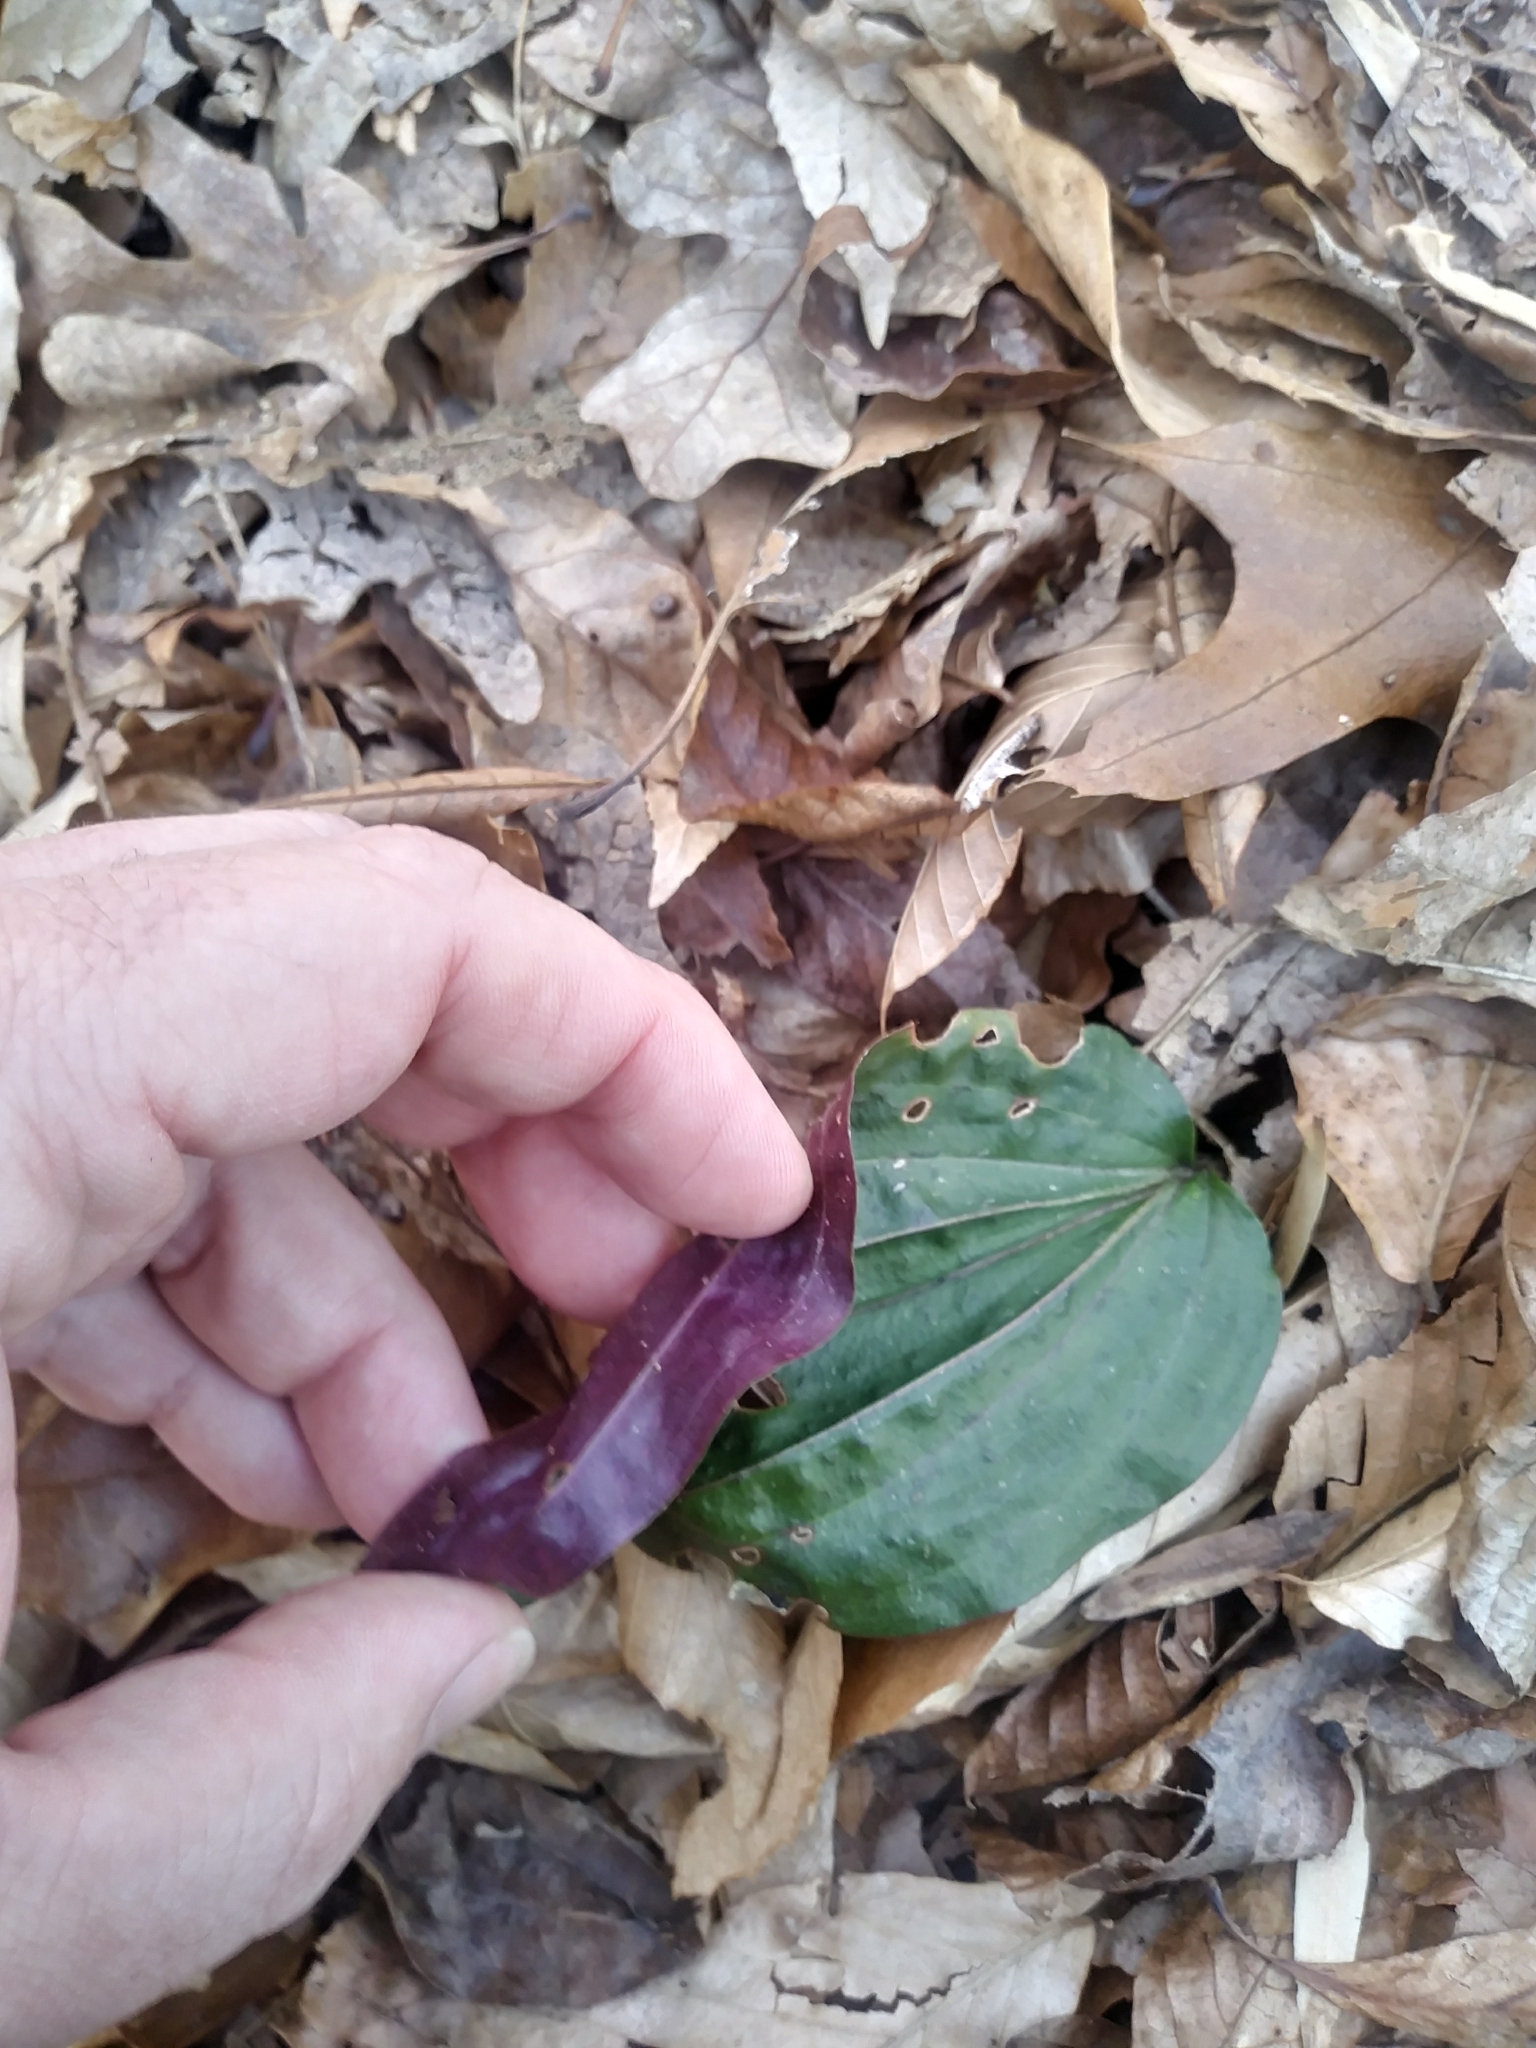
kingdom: Plantae
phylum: Tracheophyta
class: Liliopsida
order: Asparagales
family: Orchidaceae
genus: Tipularia
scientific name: Tipularia discolor
